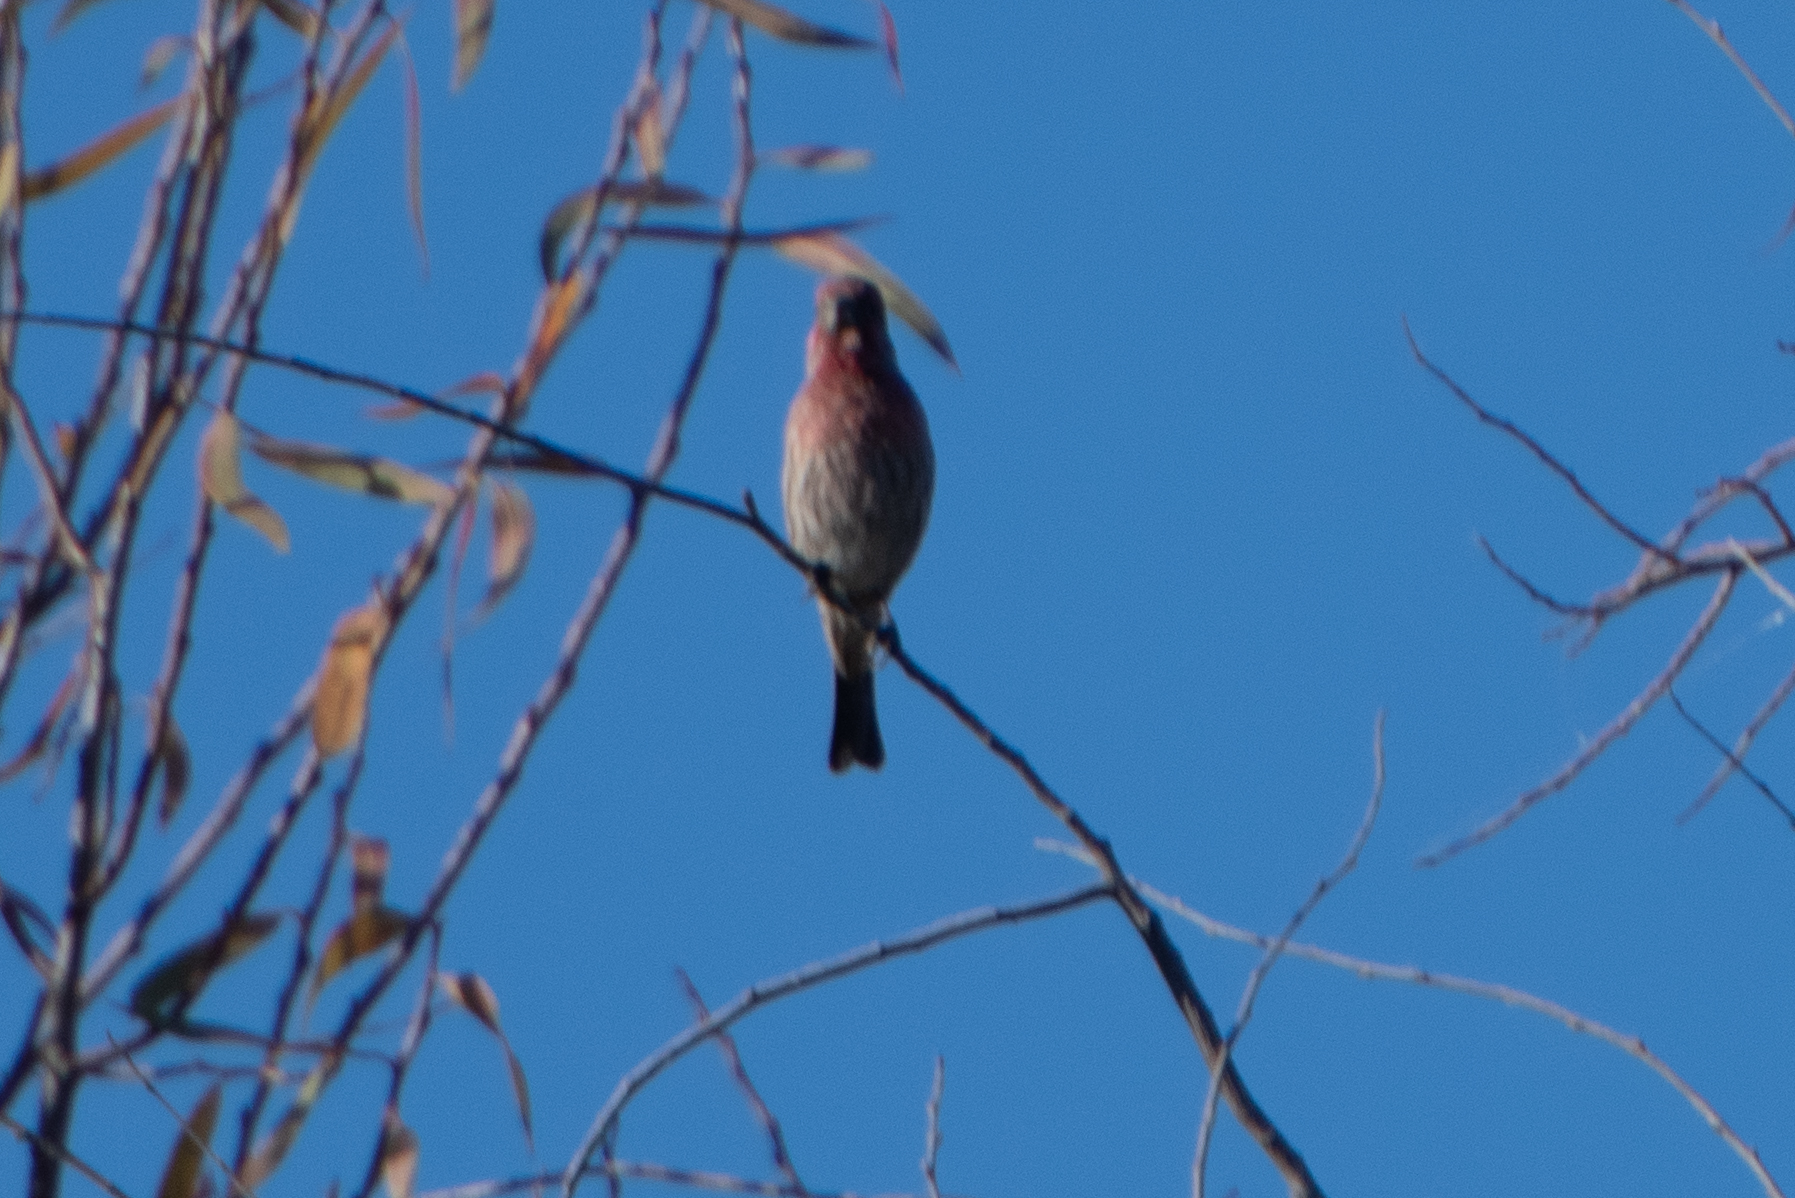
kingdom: Animalia
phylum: Chordata
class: Aves
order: Passeriformes
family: Fringillidae
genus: Haemorhous
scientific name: Haemorhous mexicanus
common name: House finch
